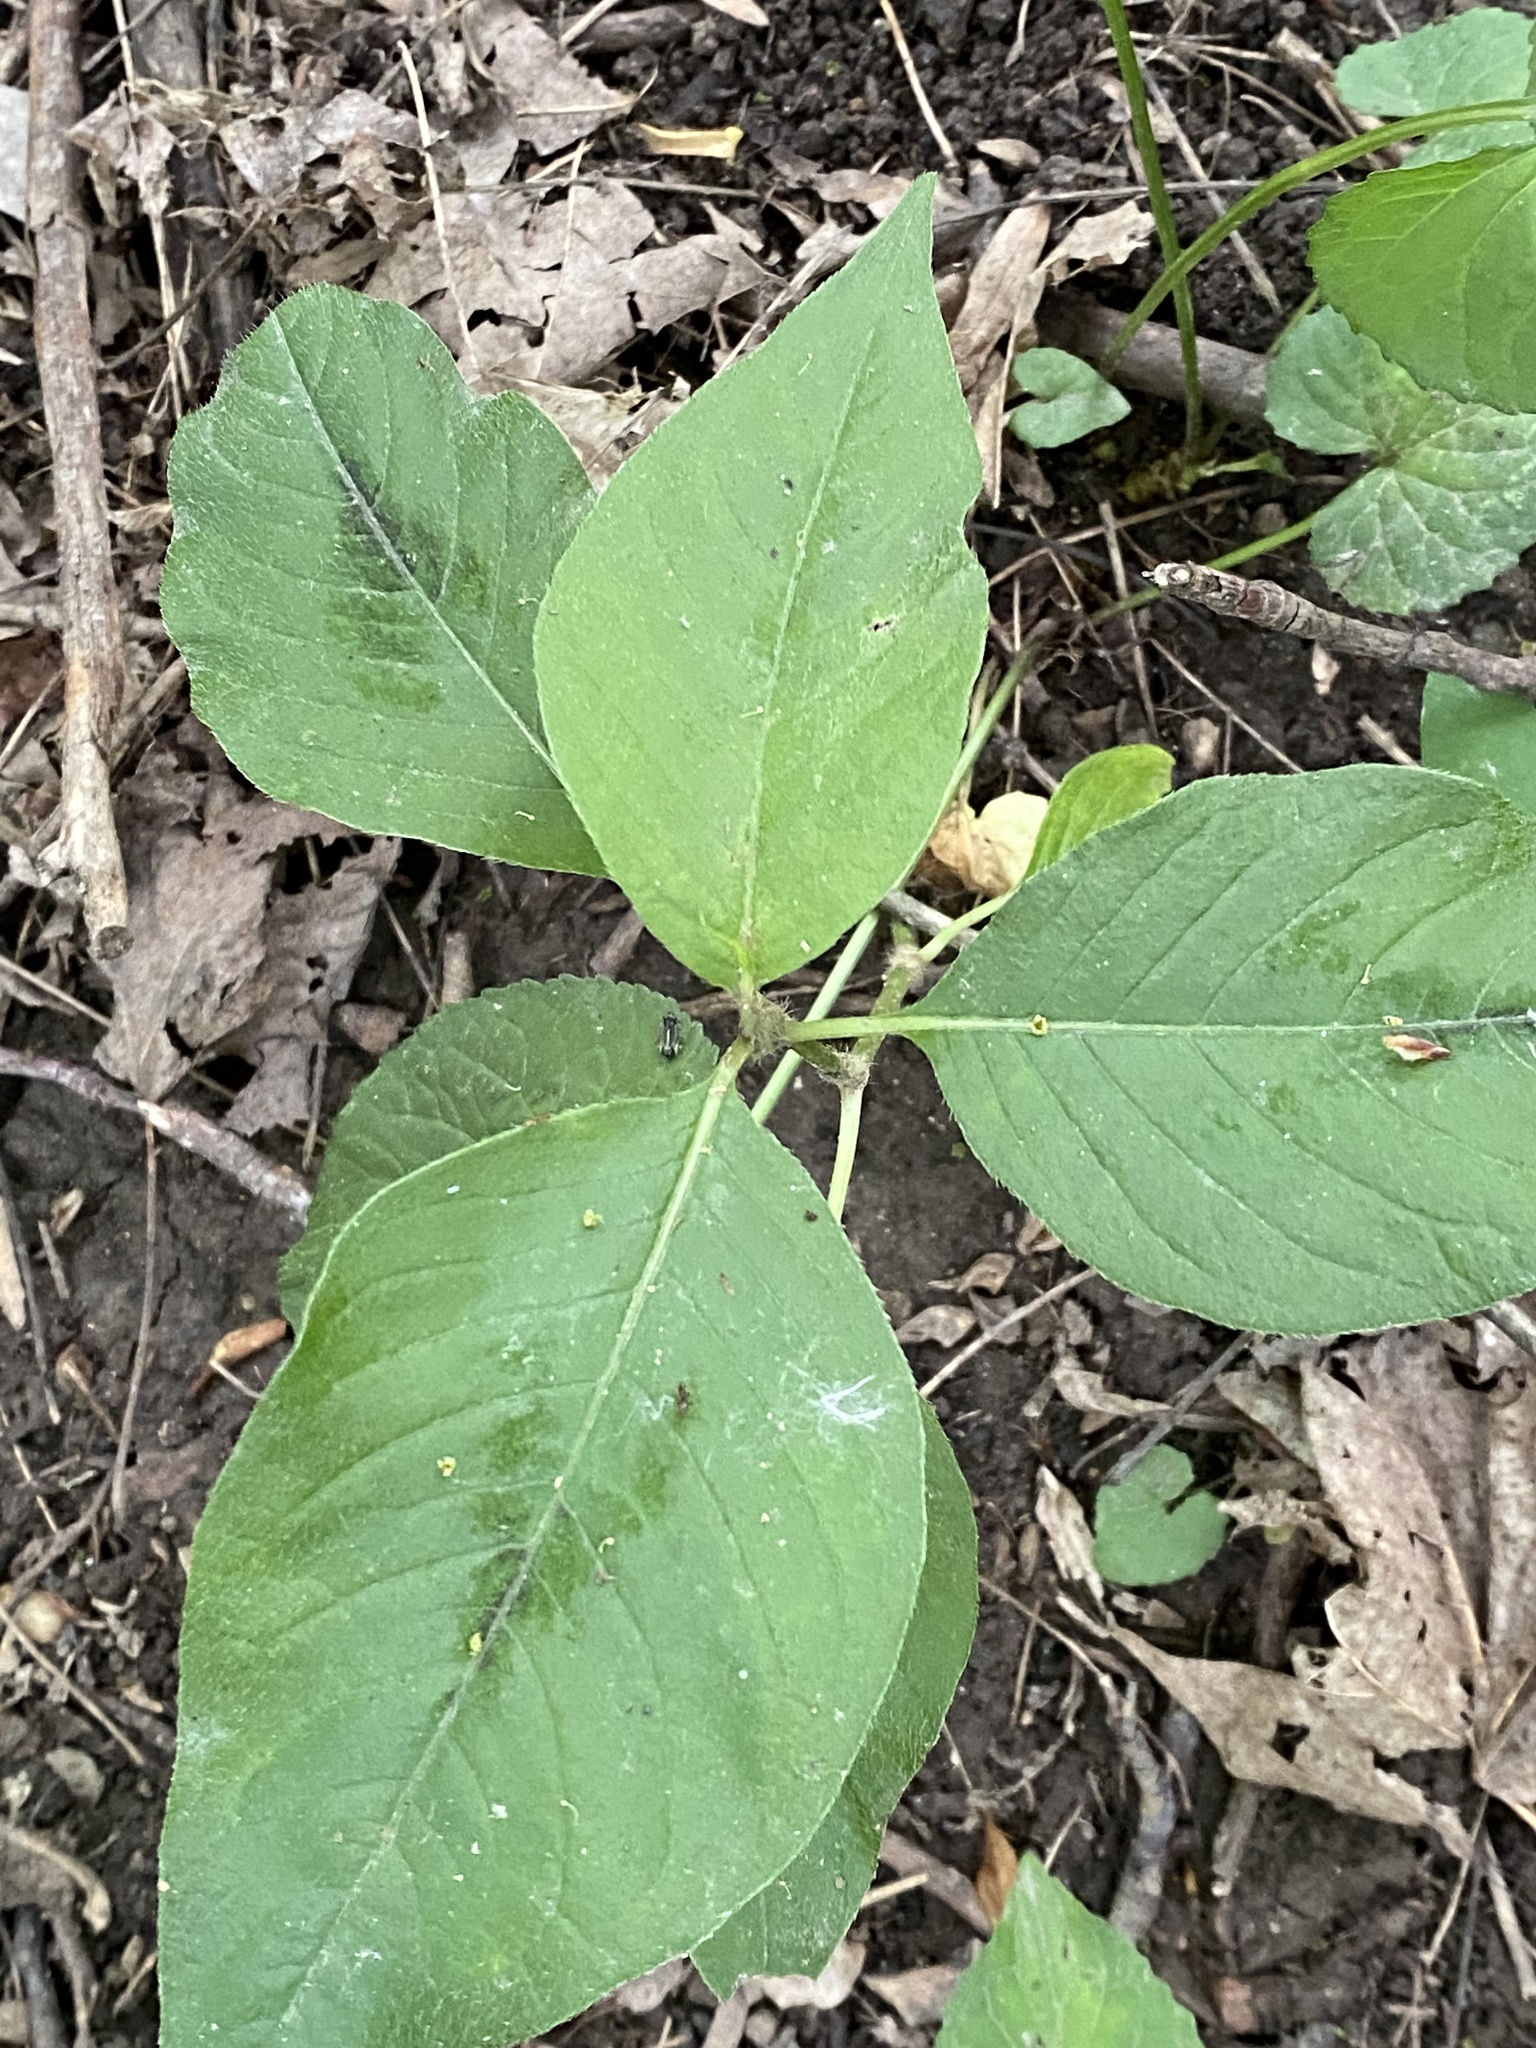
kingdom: Plantae
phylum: Tracheophyta
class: Magnoliopsida
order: Caryophyllales
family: Polygonaceae
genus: Persicaria
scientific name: Persicaria virginiana
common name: Jumpseed
